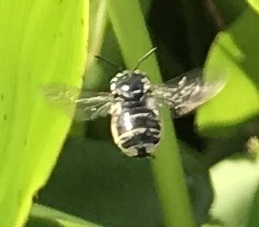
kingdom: Animalia
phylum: Arthropoda
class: Insecta
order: Hymenoptera
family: Apidae
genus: Florilegus
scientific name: Florilegus condignus
